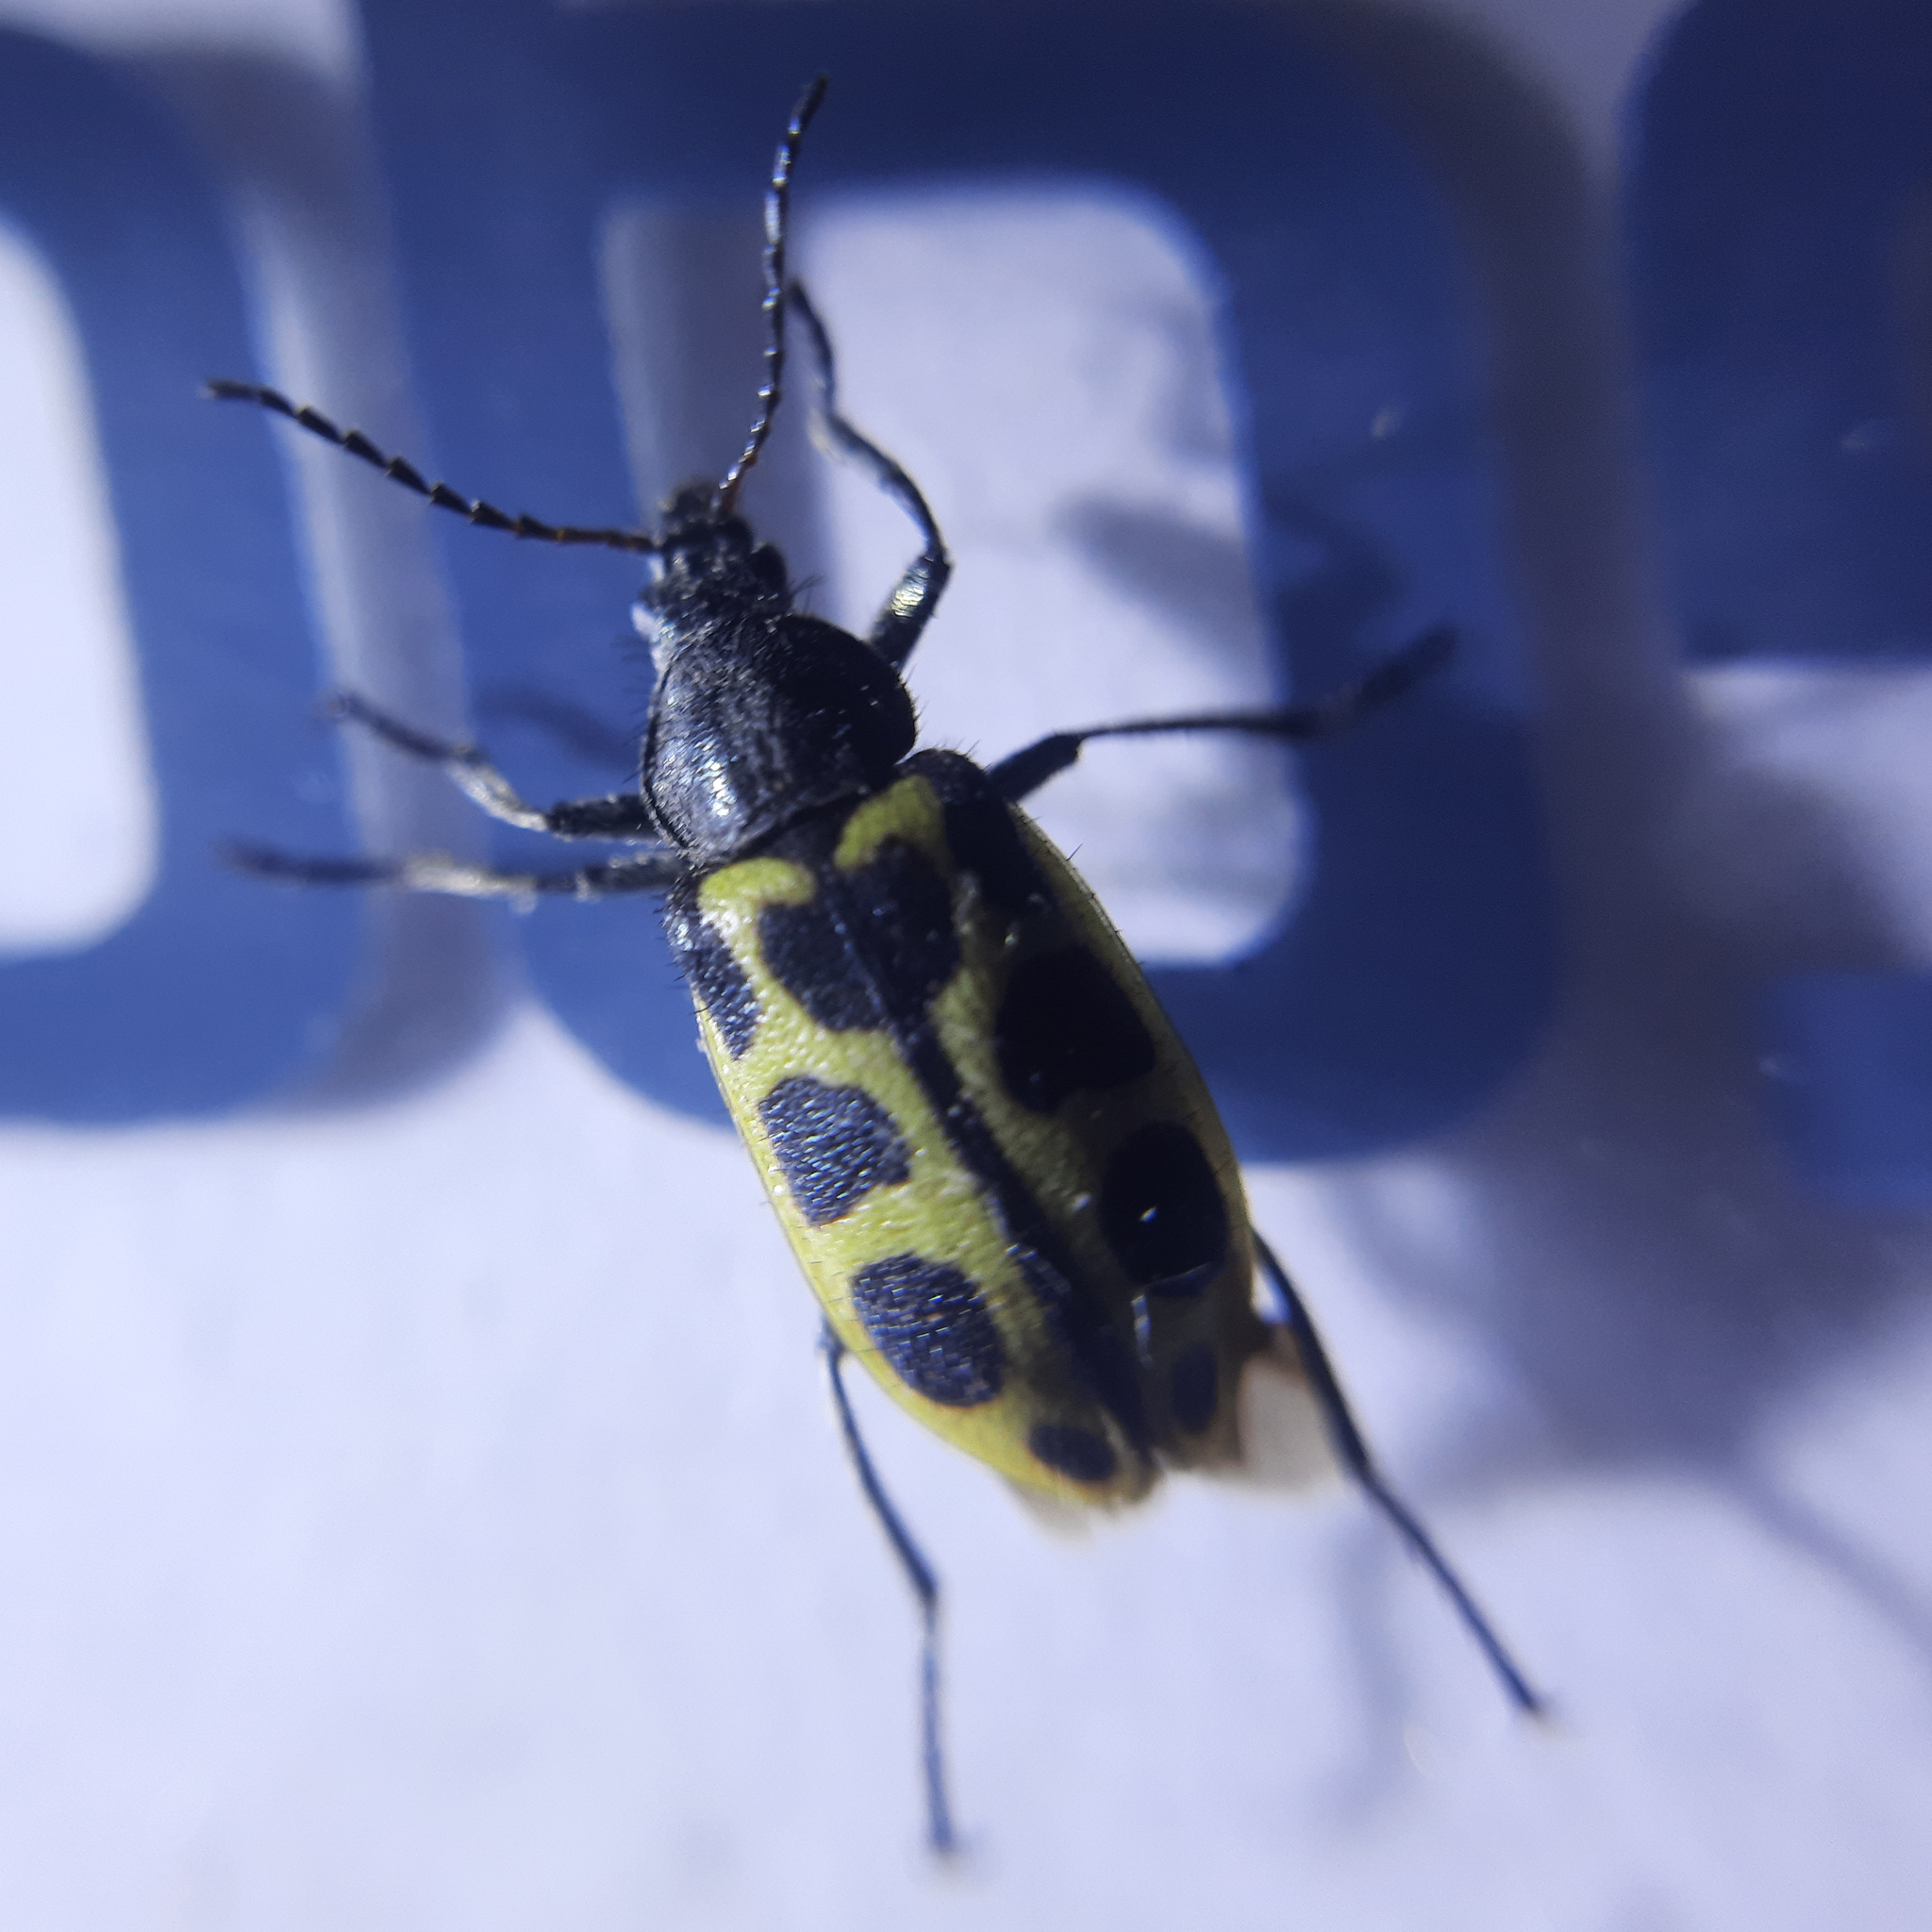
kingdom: Animalia
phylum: Arthropoda
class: Insecta
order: Coleoptera
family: Melyridae
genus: Astylus
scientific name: Astylus
